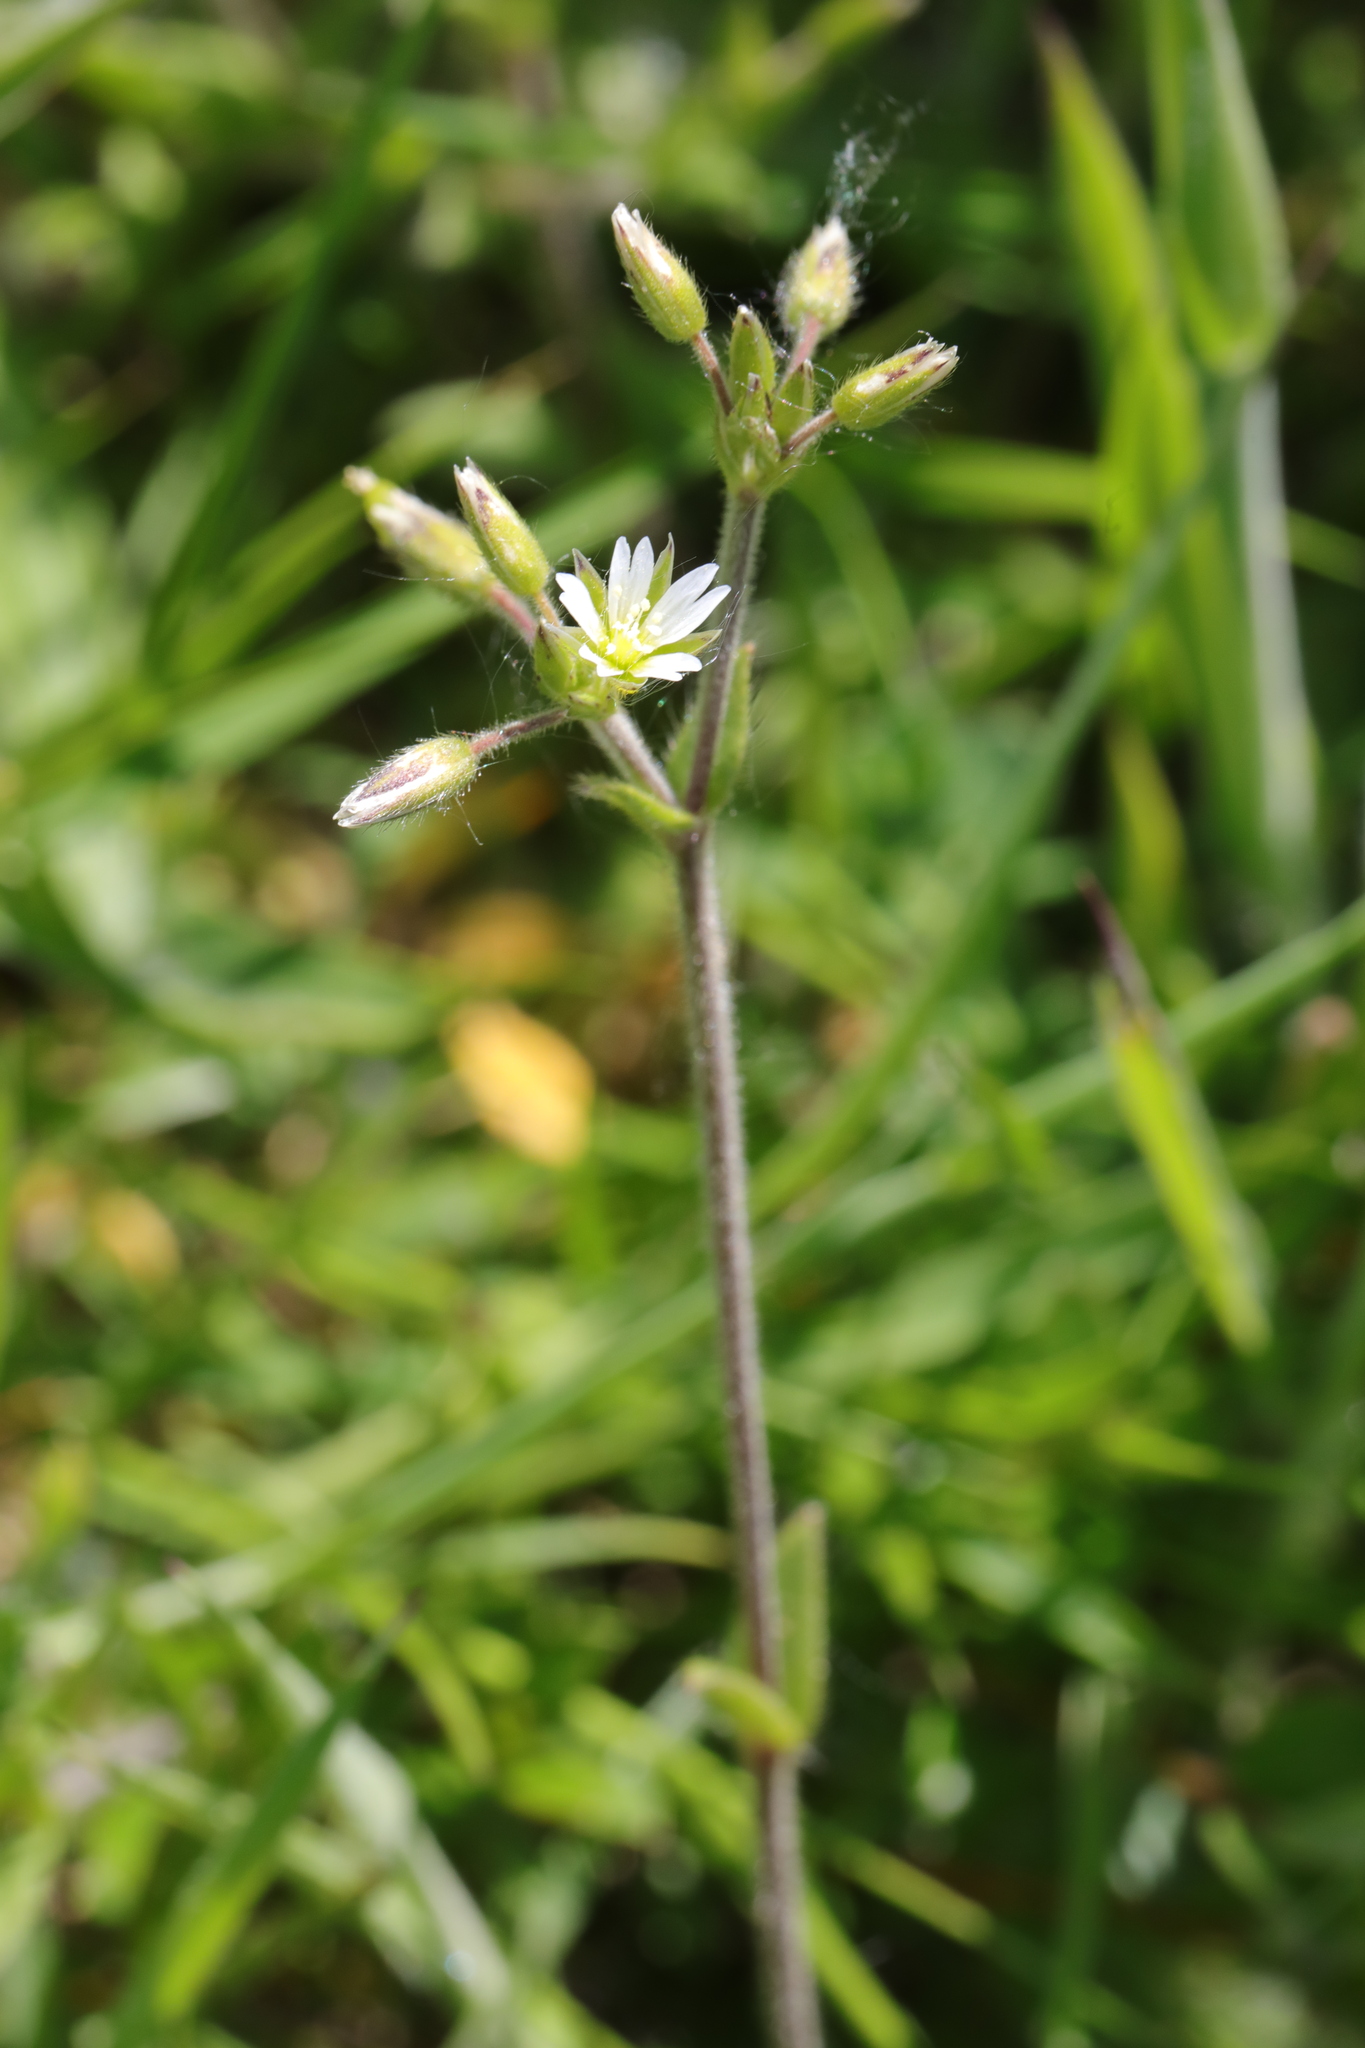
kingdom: Plantae
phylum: Tracheophyta
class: Magnoliopsida
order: Caryophyllales
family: Caryophyllaceae
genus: Cerastium
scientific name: Cerastium fontanum
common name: Common mouse-ear
